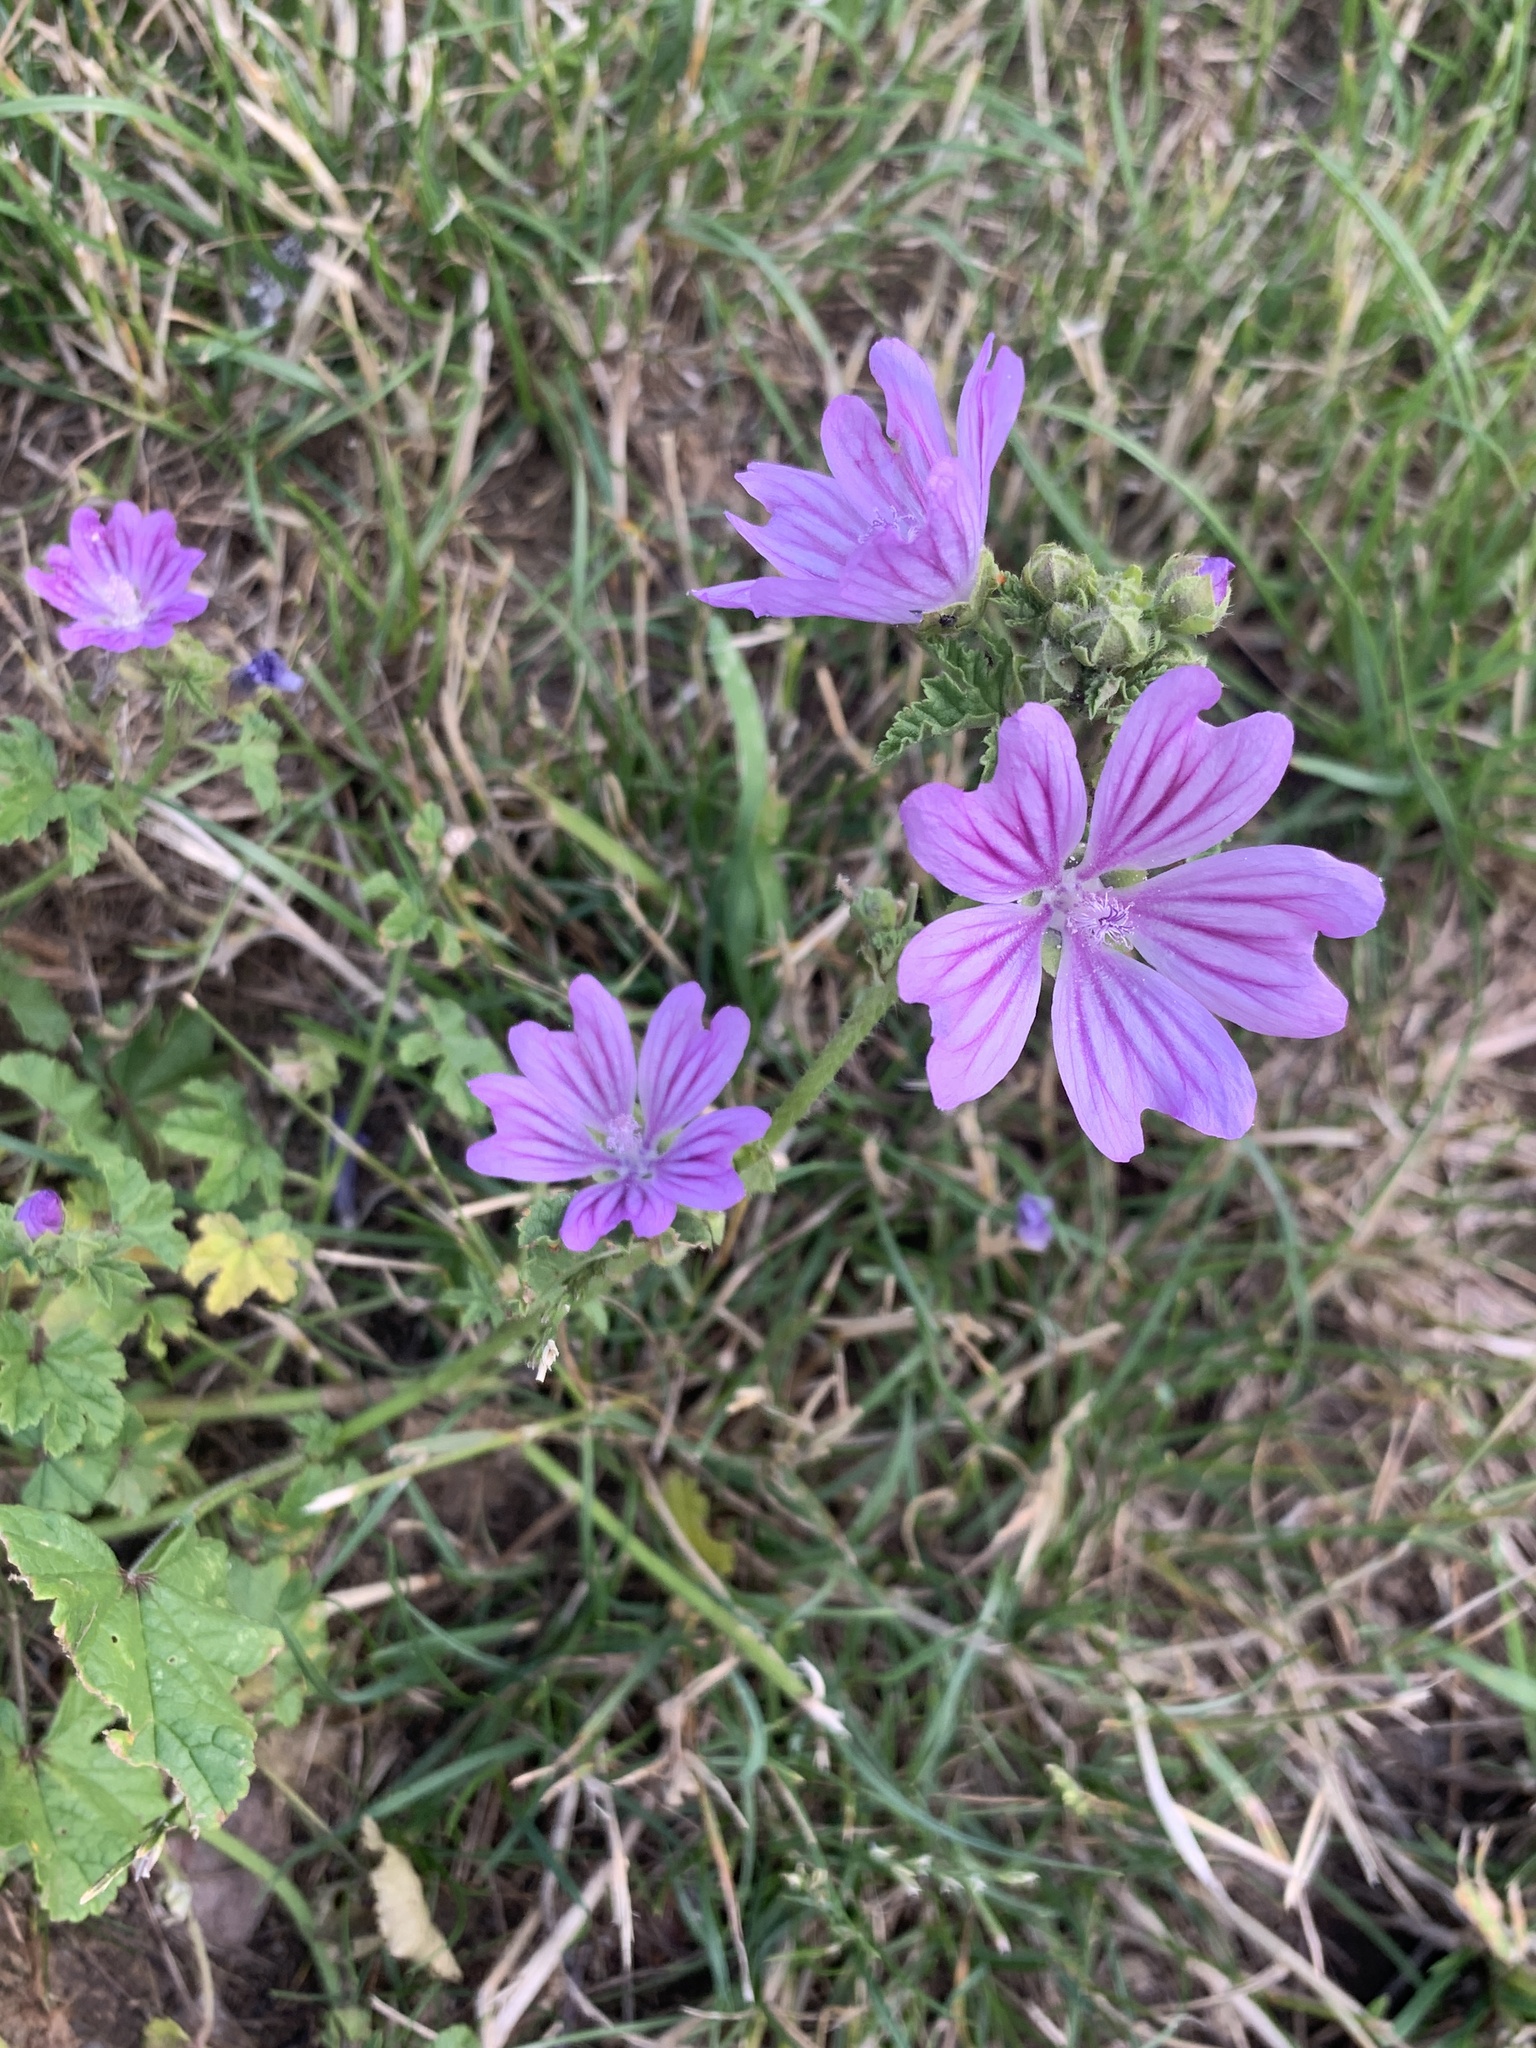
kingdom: Plantae
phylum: Tracheophyta
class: Magnoliopsida
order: Malvales
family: Malvaceae
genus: Malva
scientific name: Malva sylvestris
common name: Common mallow
